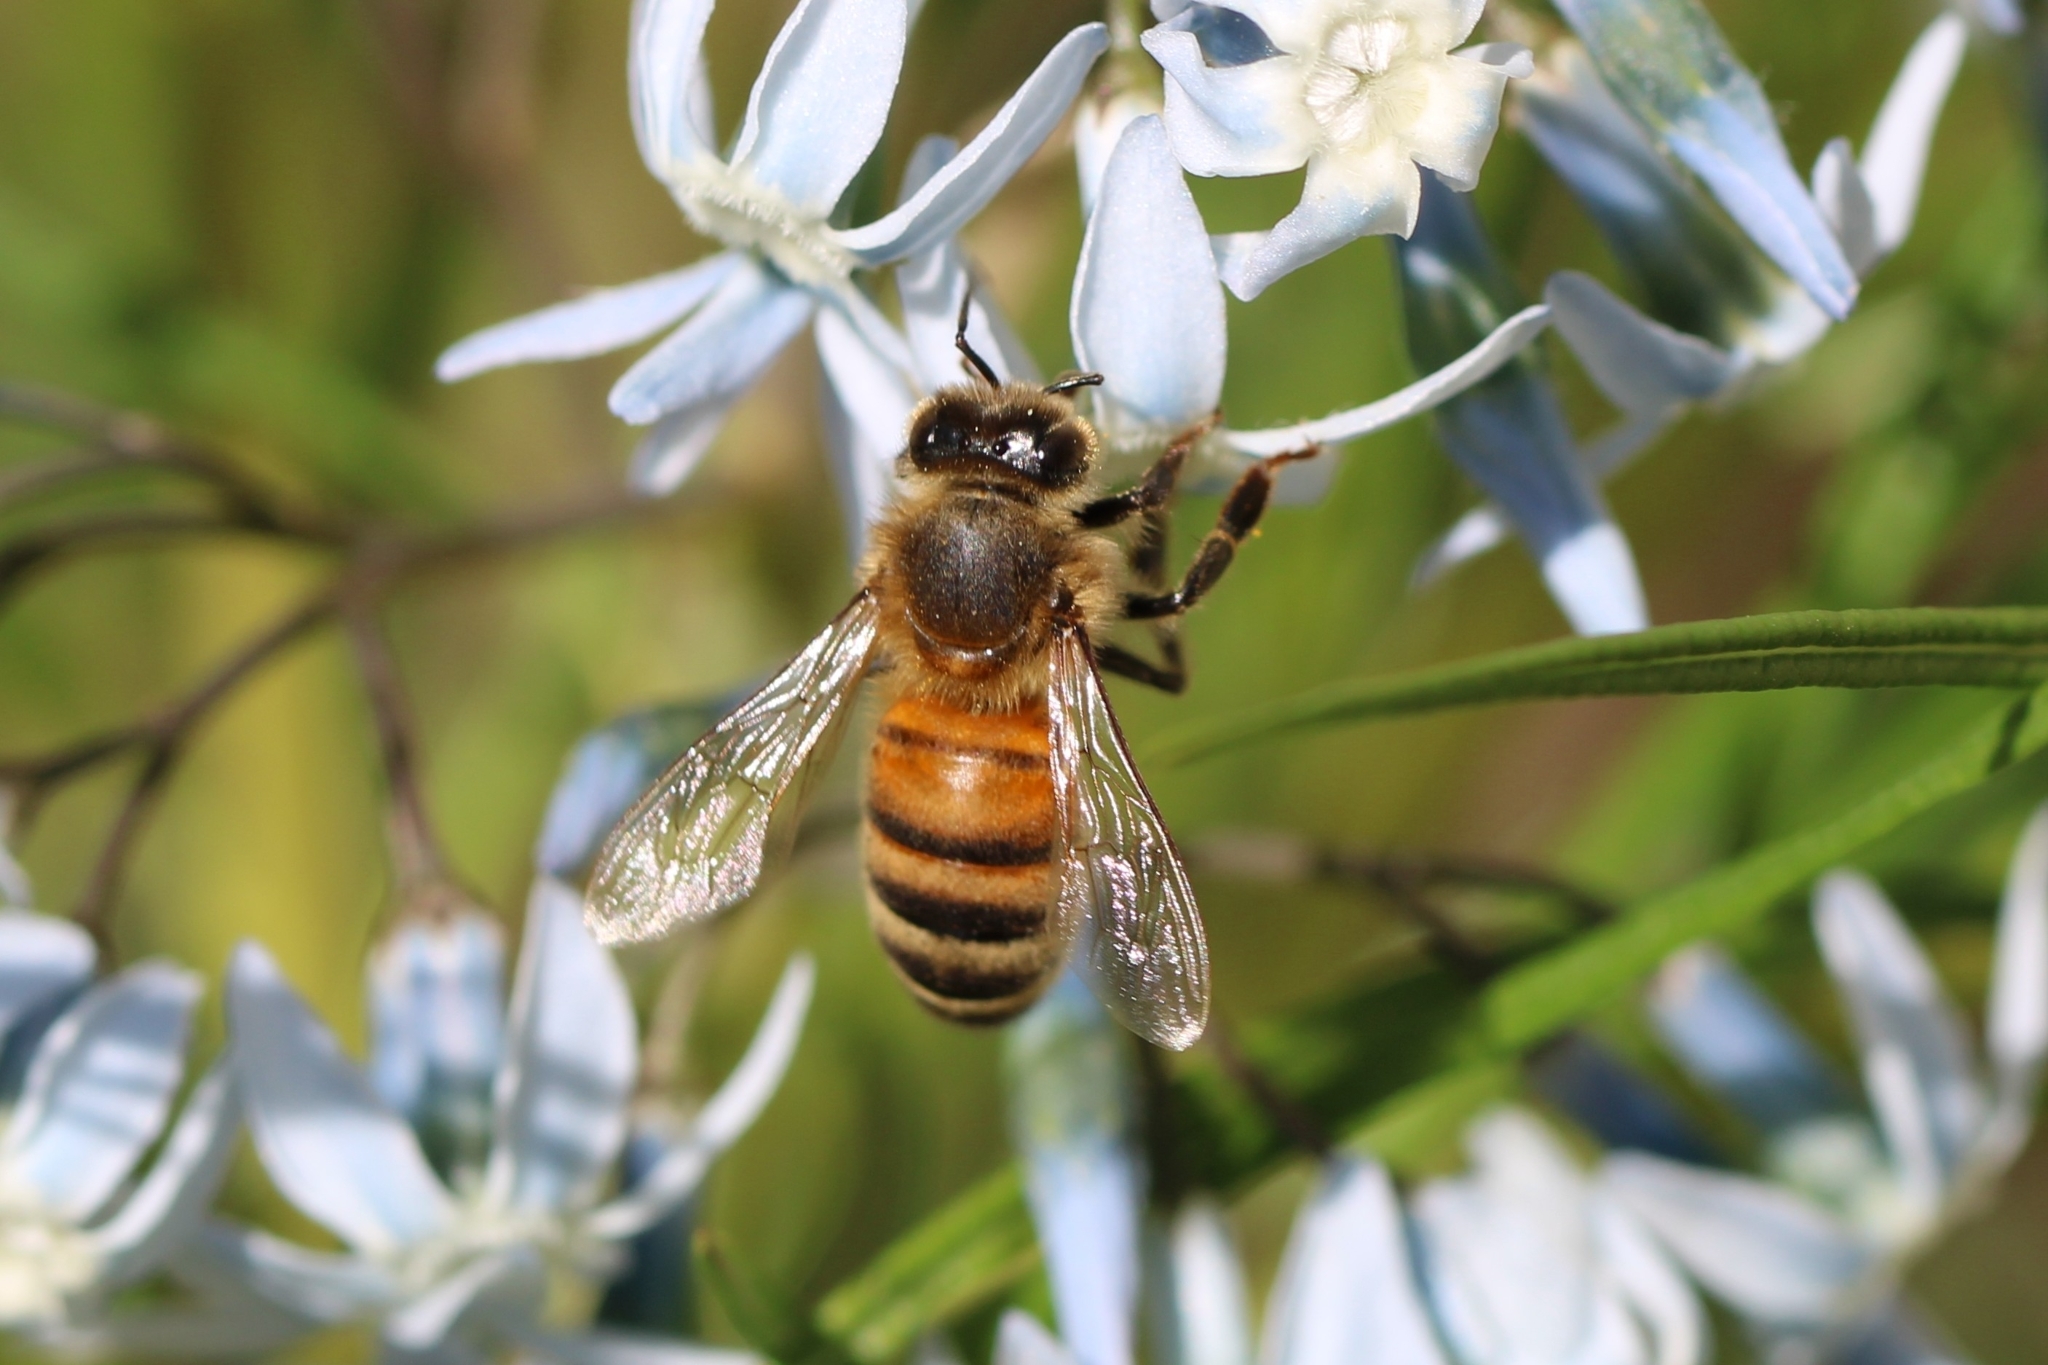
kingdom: Animalia
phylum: Arthropoda
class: Insecta
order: Hymenoptera
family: Apidae
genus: Apis
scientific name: Apis mellifera
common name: Honey bee
